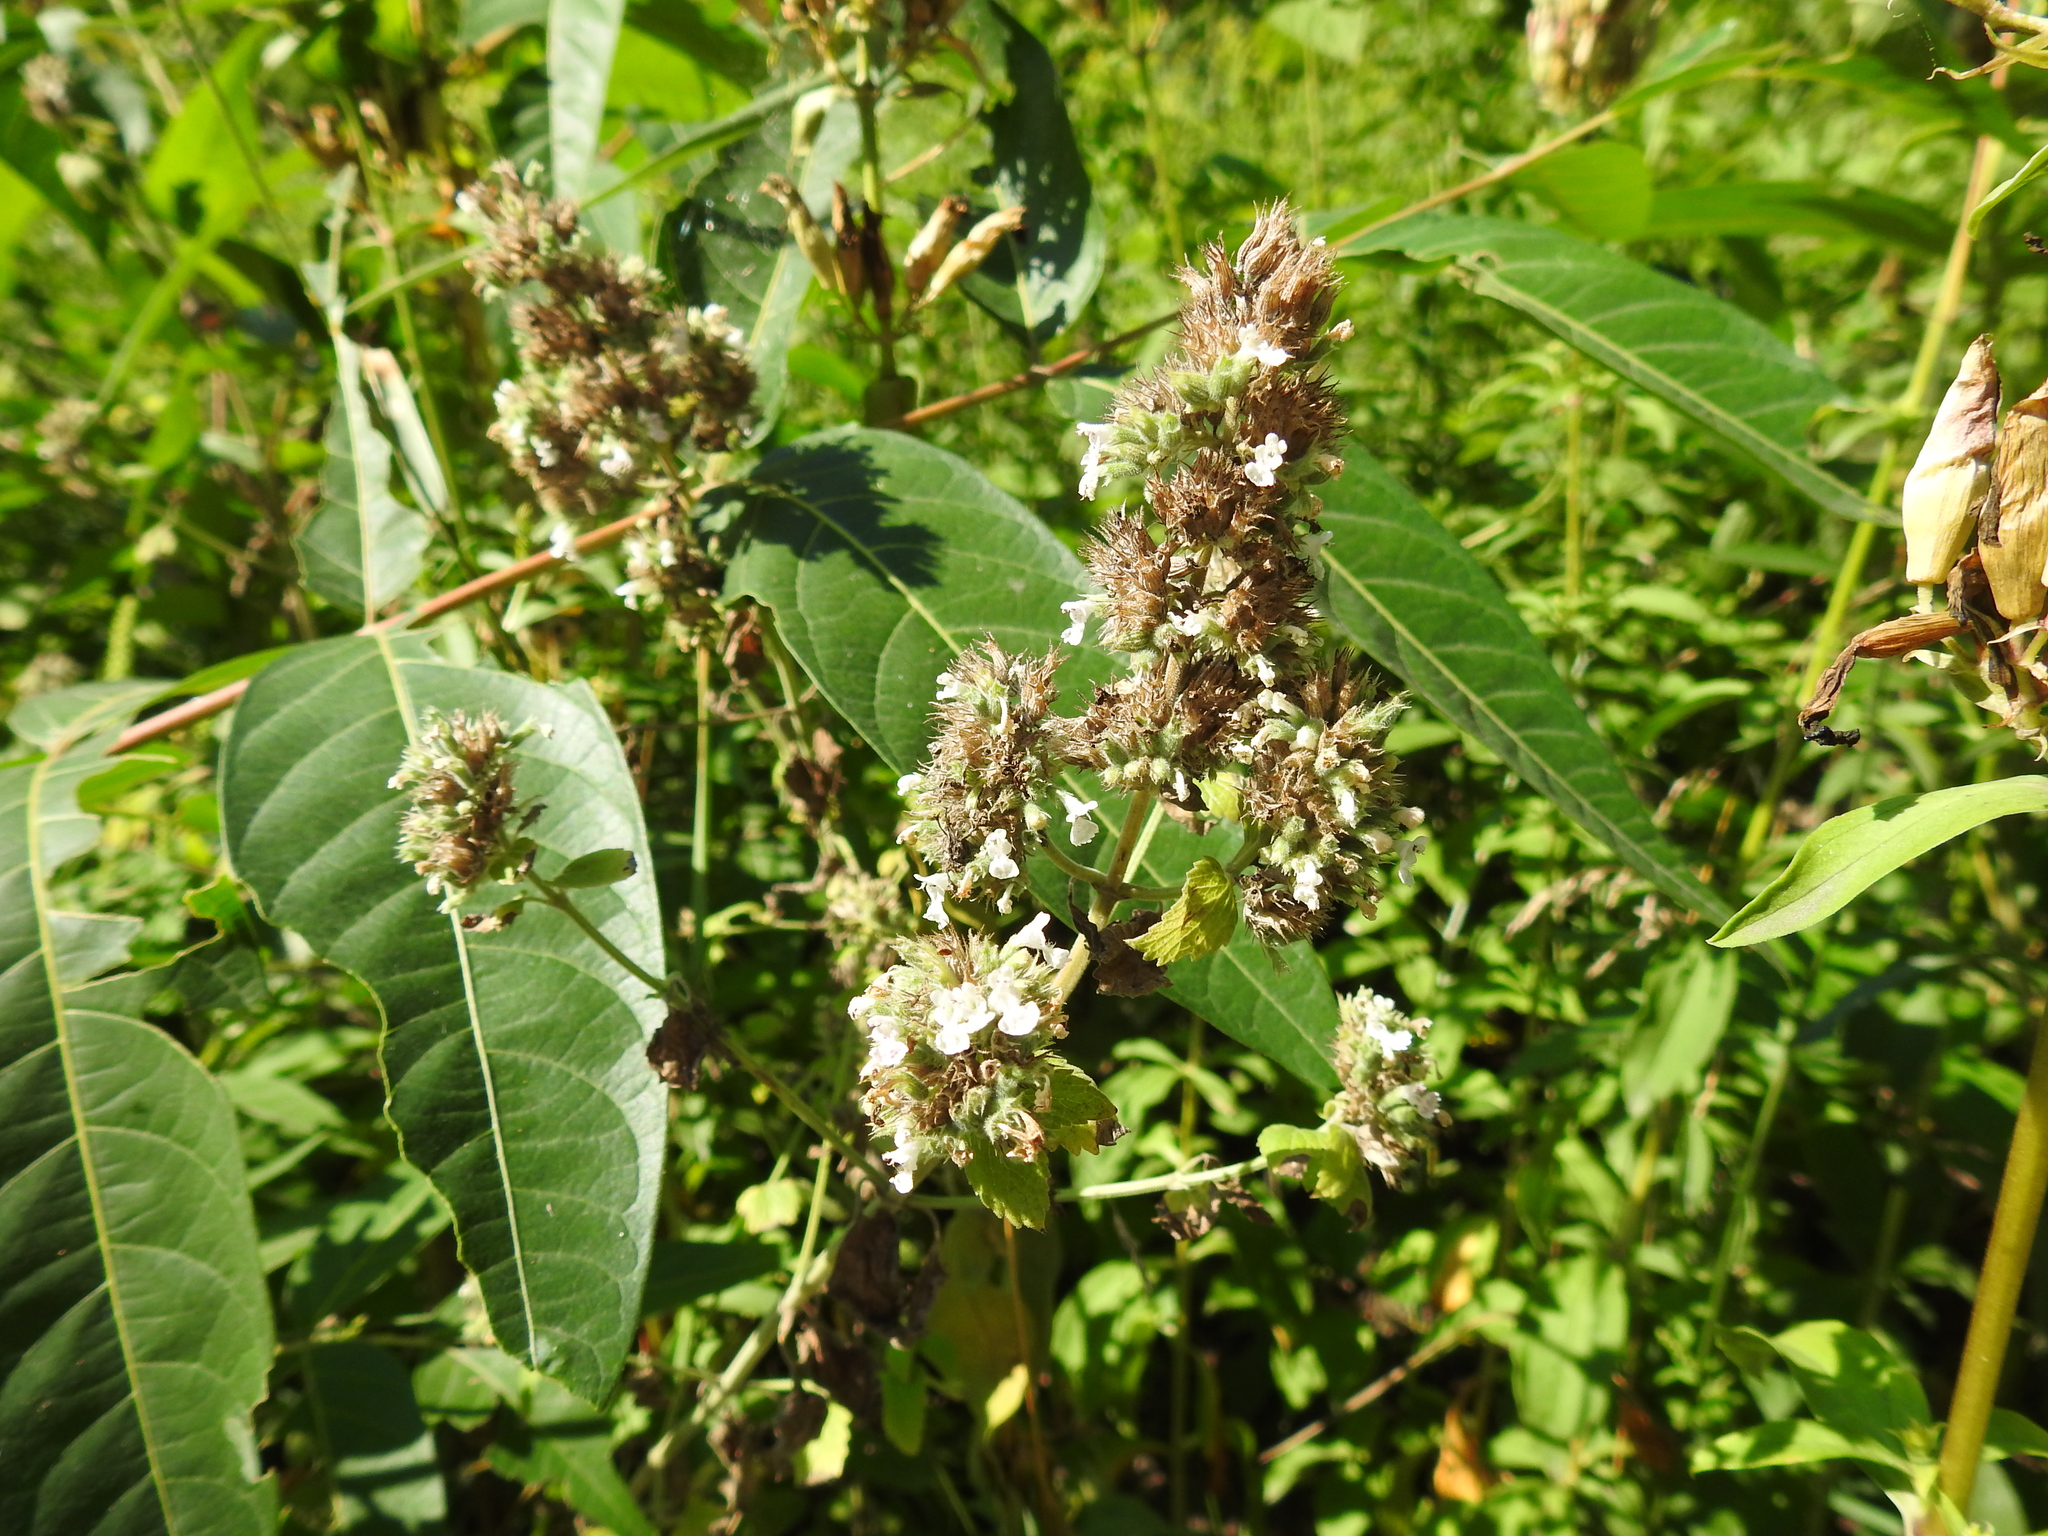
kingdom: Plantae
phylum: Tracheophyta
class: Magnoliopsida
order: Lamiales
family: Lamiaceae
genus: Nepeta
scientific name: Nepeta cataria
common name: Catnip
